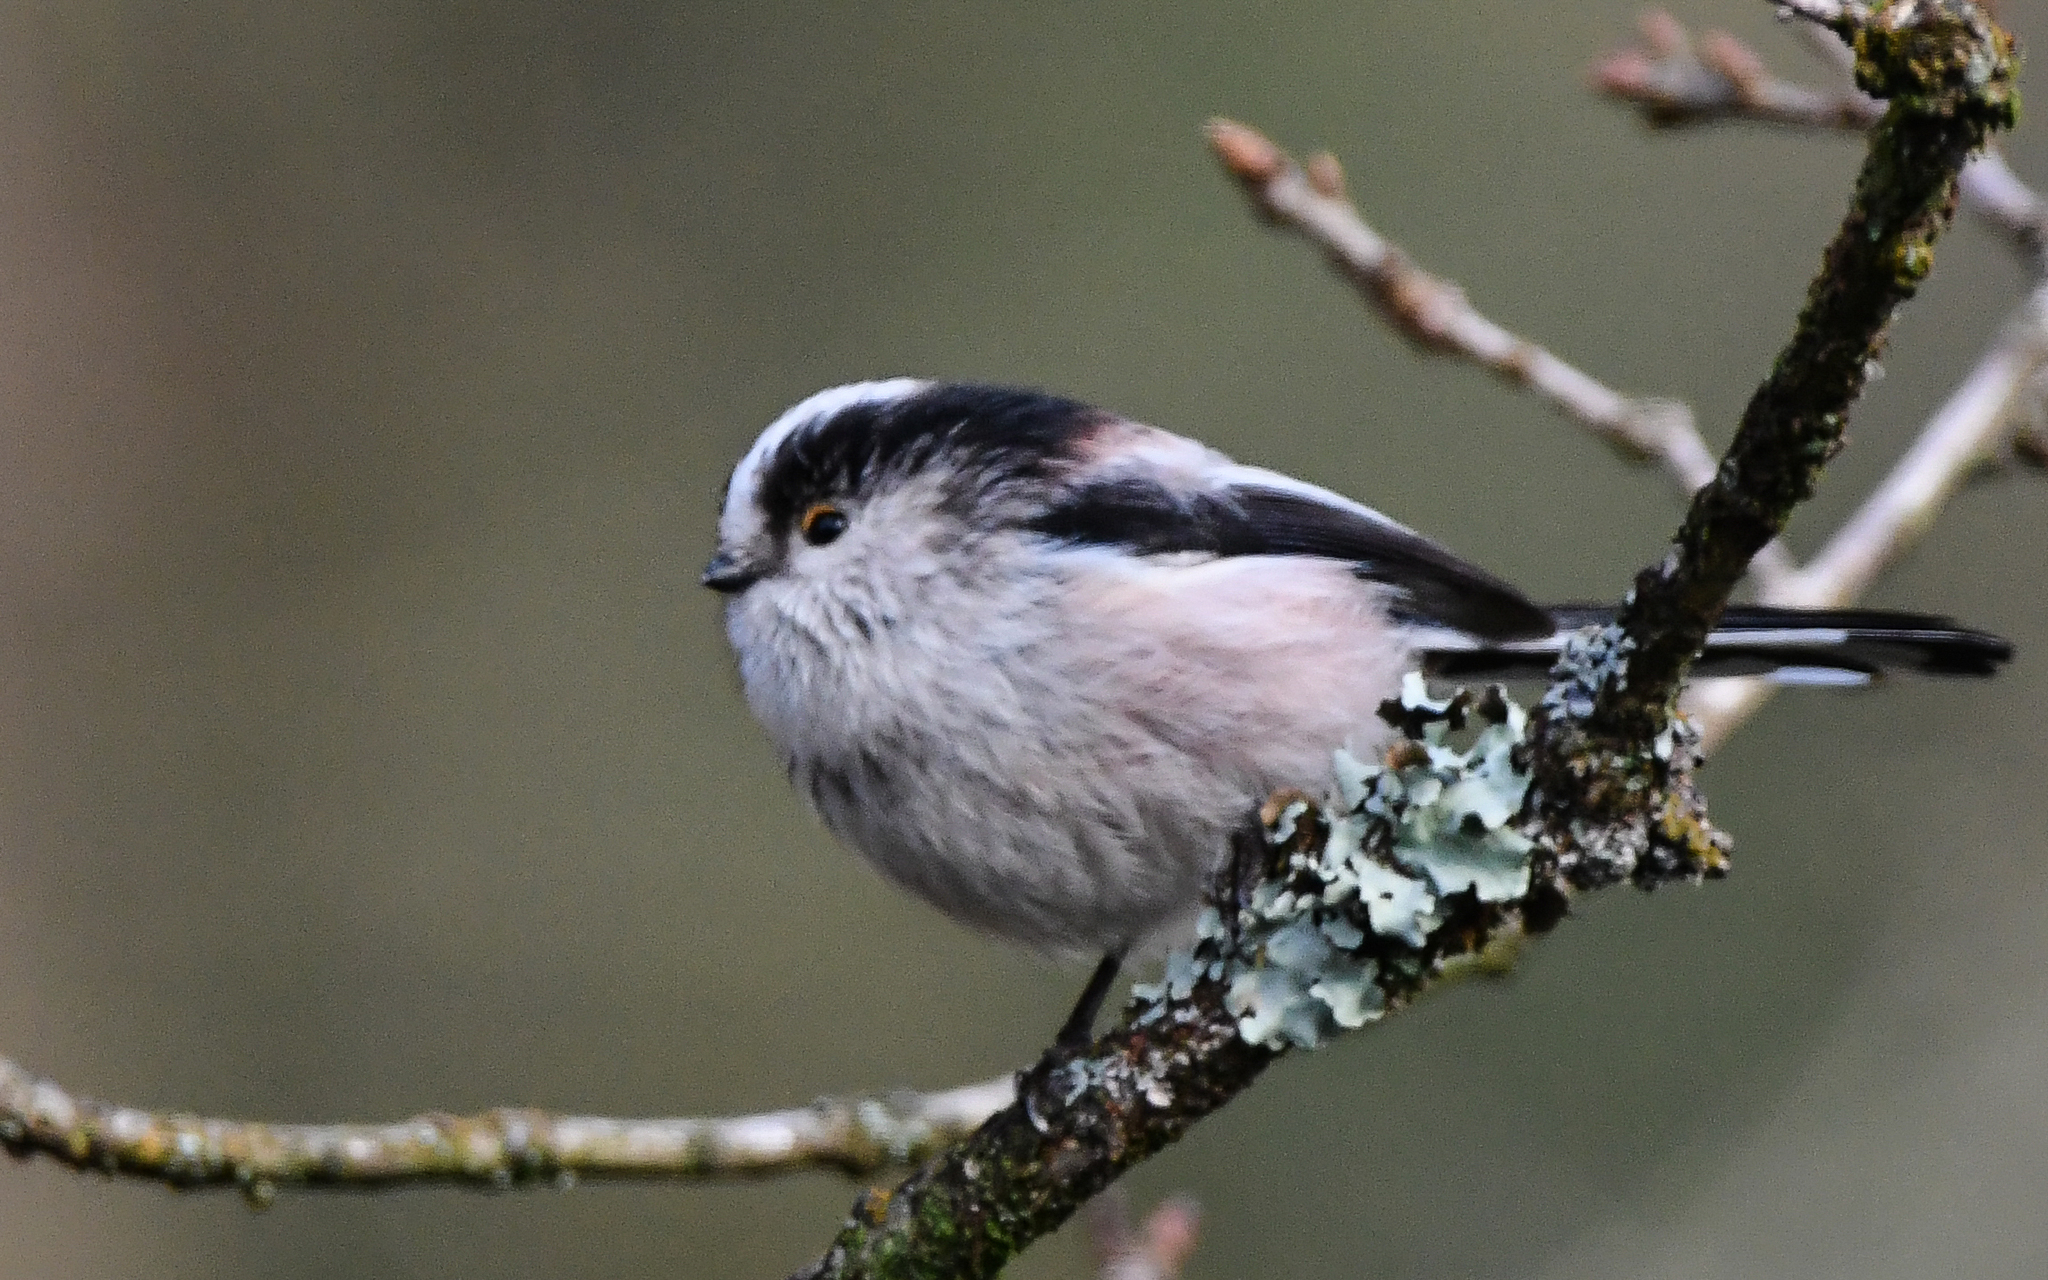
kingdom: Animalia
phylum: Chordata
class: Aves
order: Passeriformes
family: Aegithalidae
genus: Aegithalos
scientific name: Aegithalos caudatus
